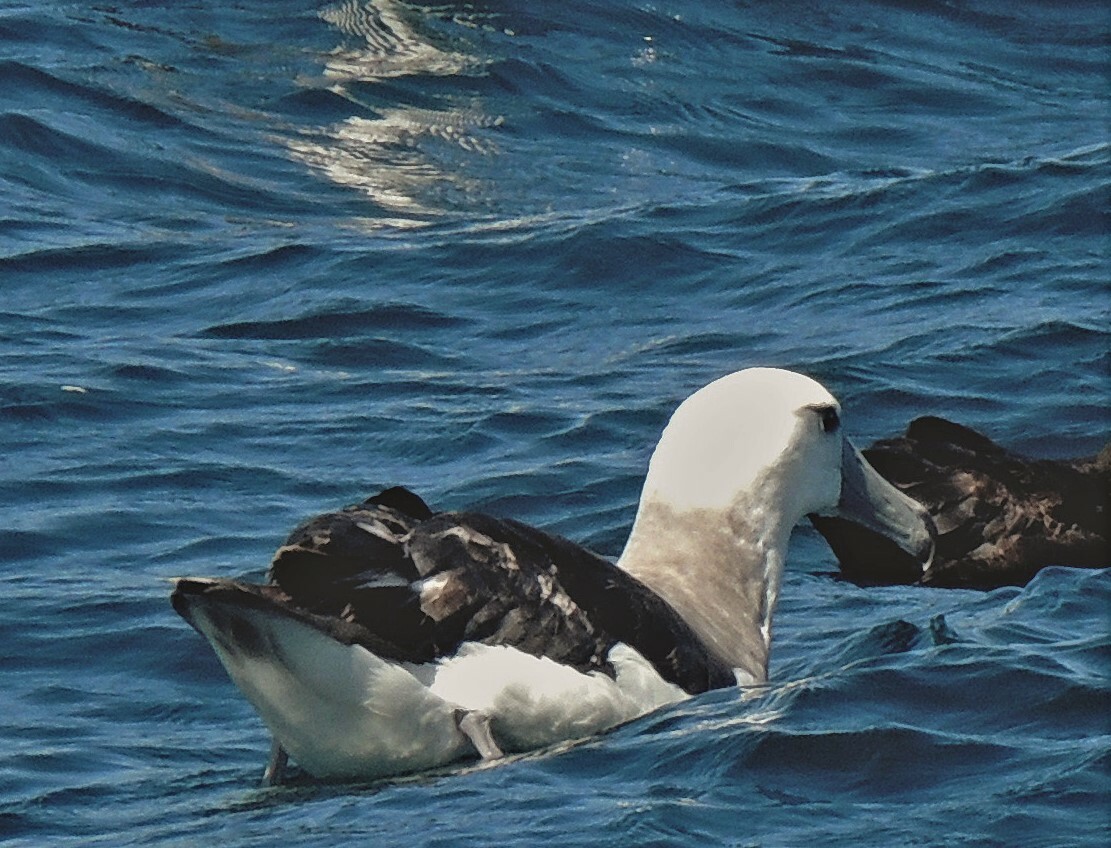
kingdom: Animalia
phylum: Chordata
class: Aves
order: Procellariiformes
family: Diomedeidae
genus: Thalassarche
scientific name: Thalassarche cauta
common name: Shy albatross
